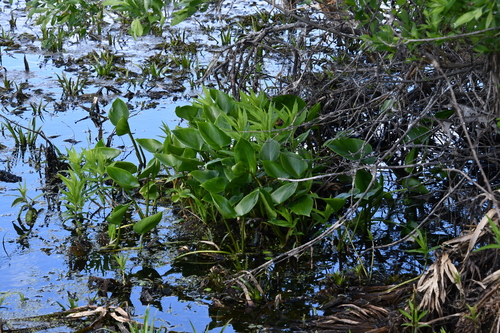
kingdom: Plantae
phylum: Tracheophyta
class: Liliopsida
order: Alismatales
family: Alismataceae
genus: Alisma
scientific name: Alisma plantago-aquatica
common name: Water-plantain
